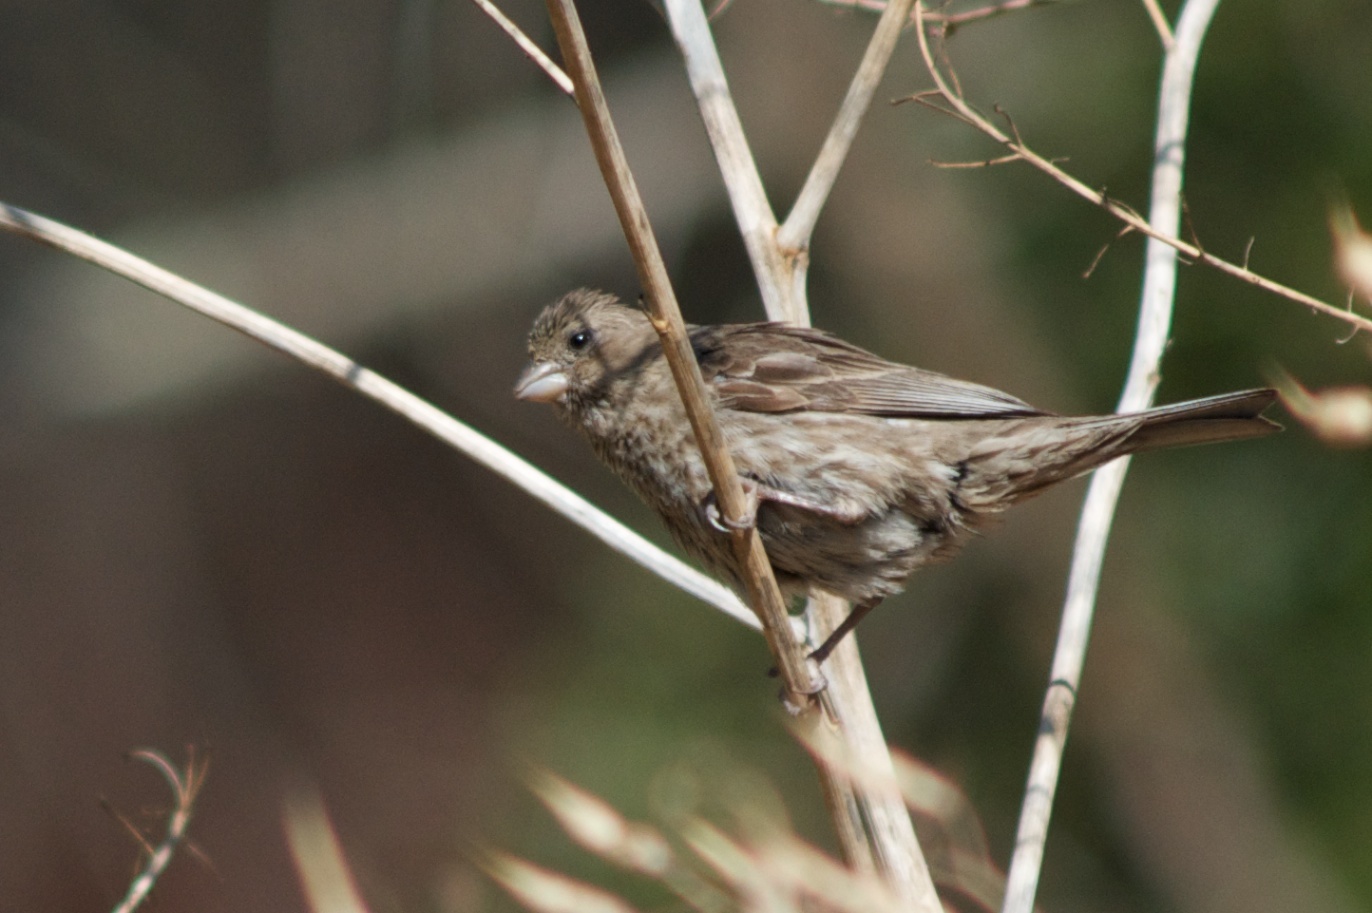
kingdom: Animalia
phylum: Chordata
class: Aves
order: Passeriformes
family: Fringillidae
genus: Haemorhous
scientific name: Haemorhous mexicanus
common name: House finch
